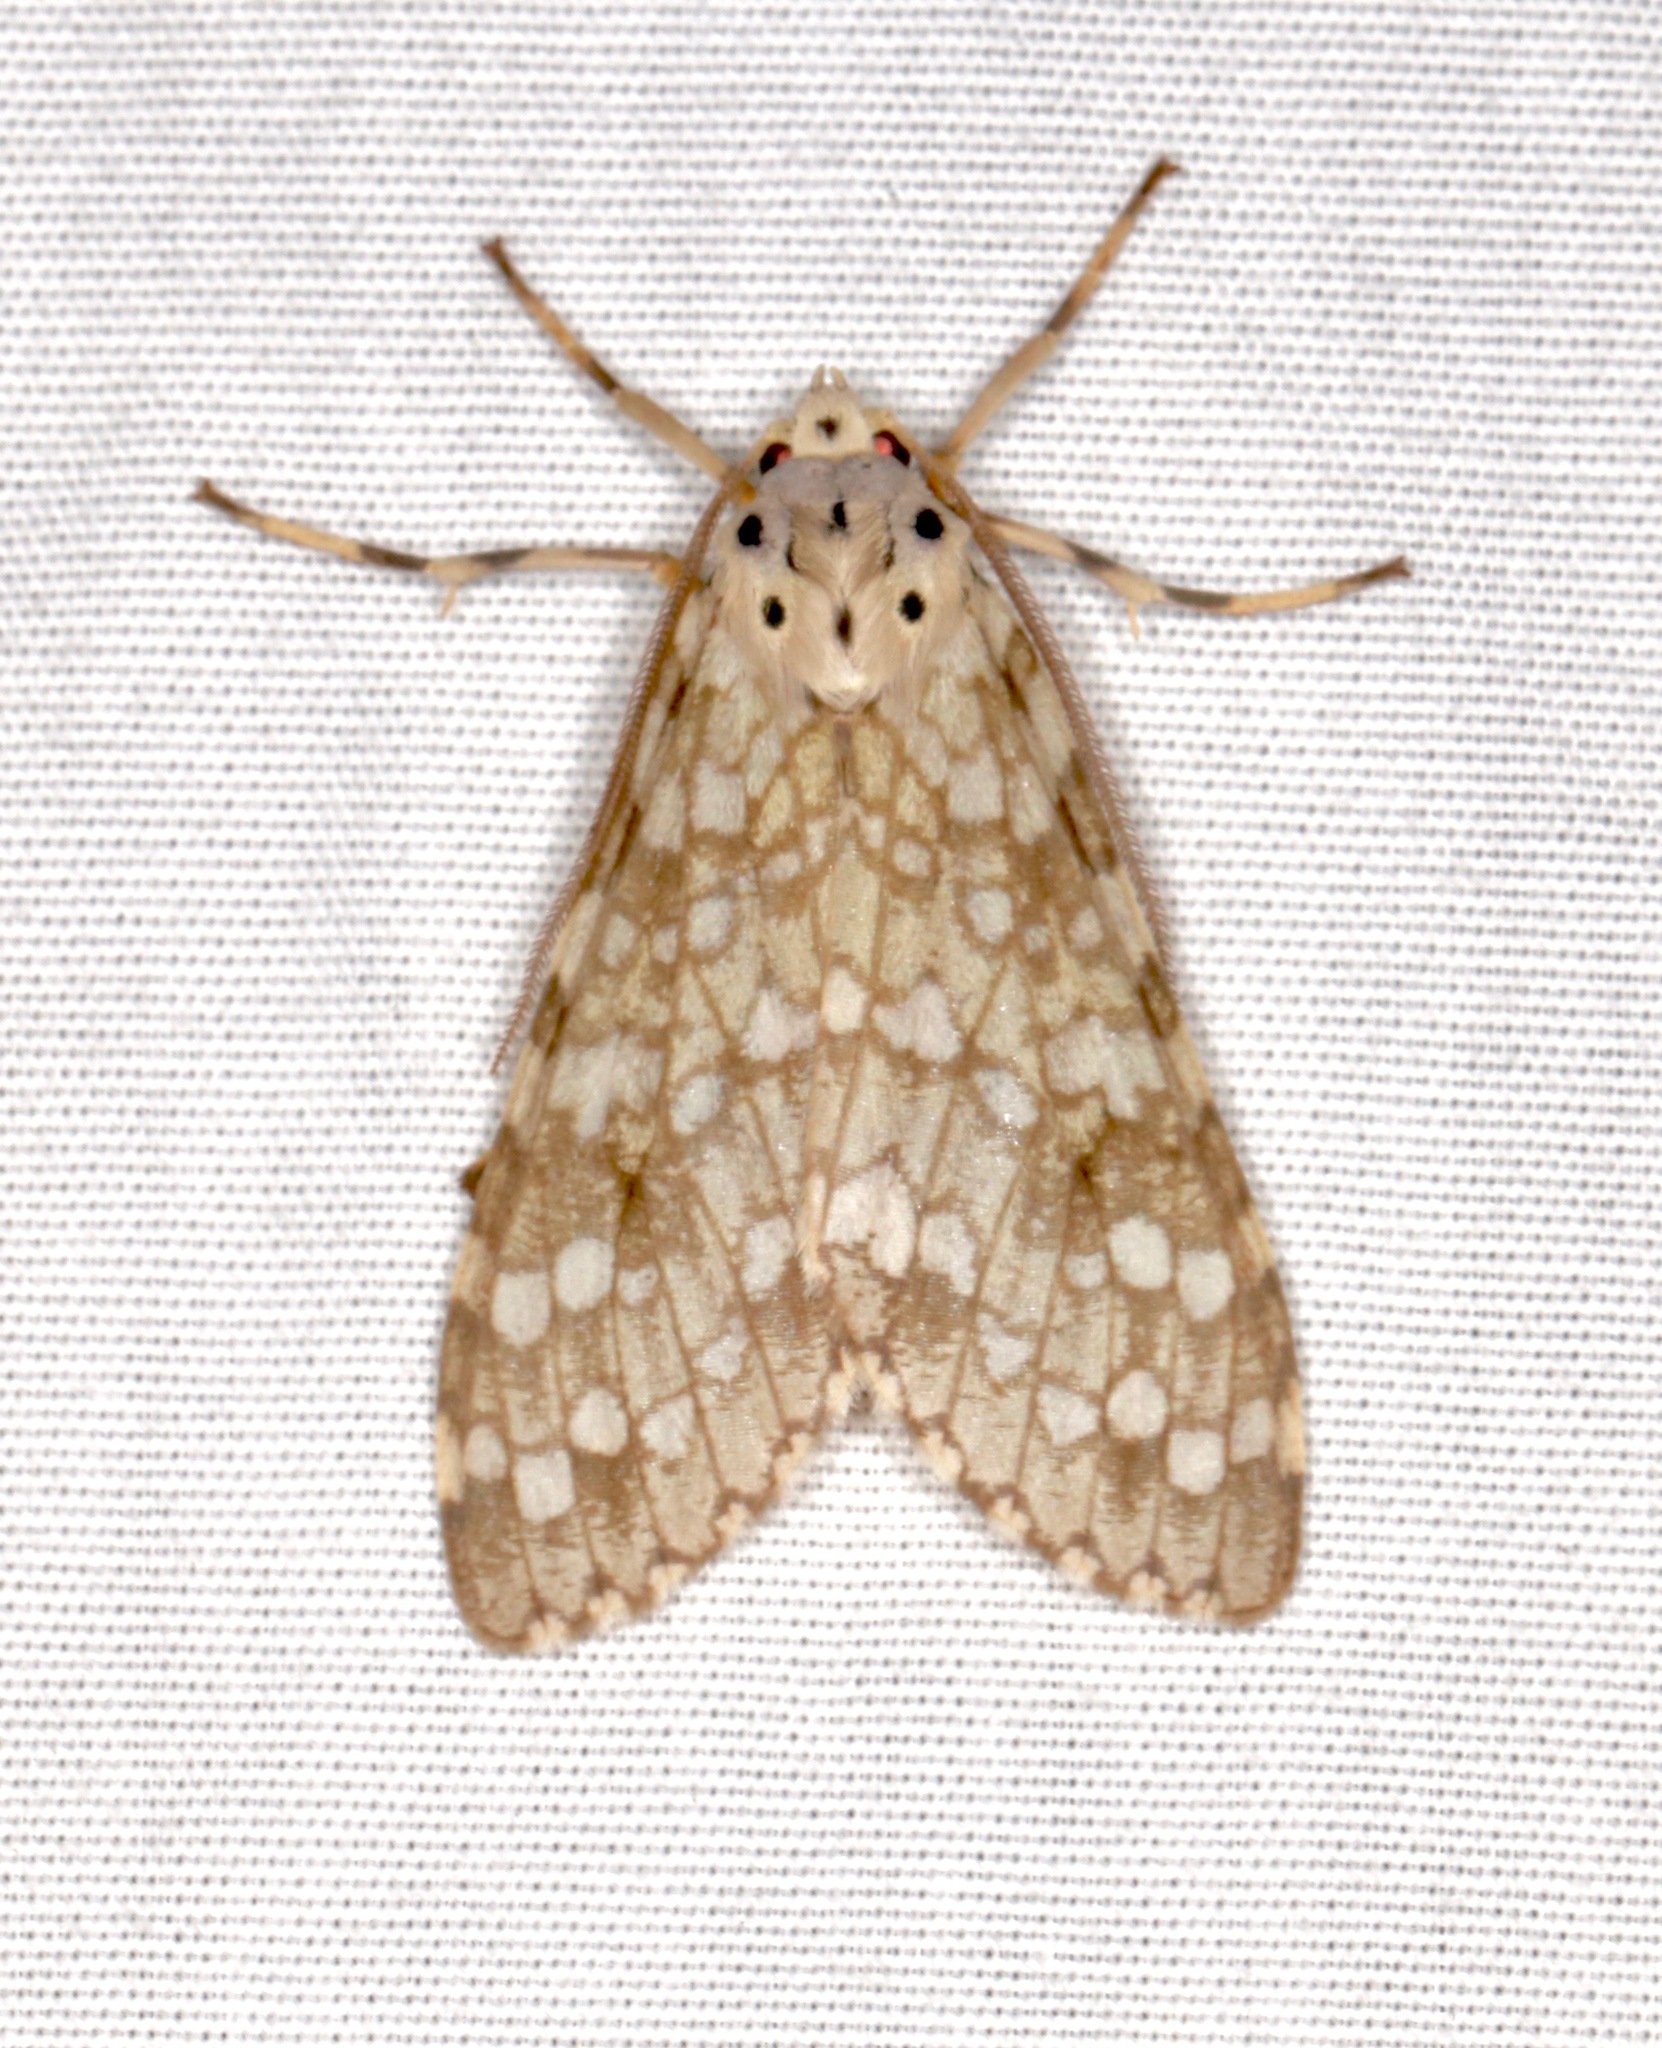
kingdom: Animalia
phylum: Arthropoda
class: Insecta
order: Lepidoptera
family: Erebidae
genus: Carales
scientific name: Carales arizonensis
